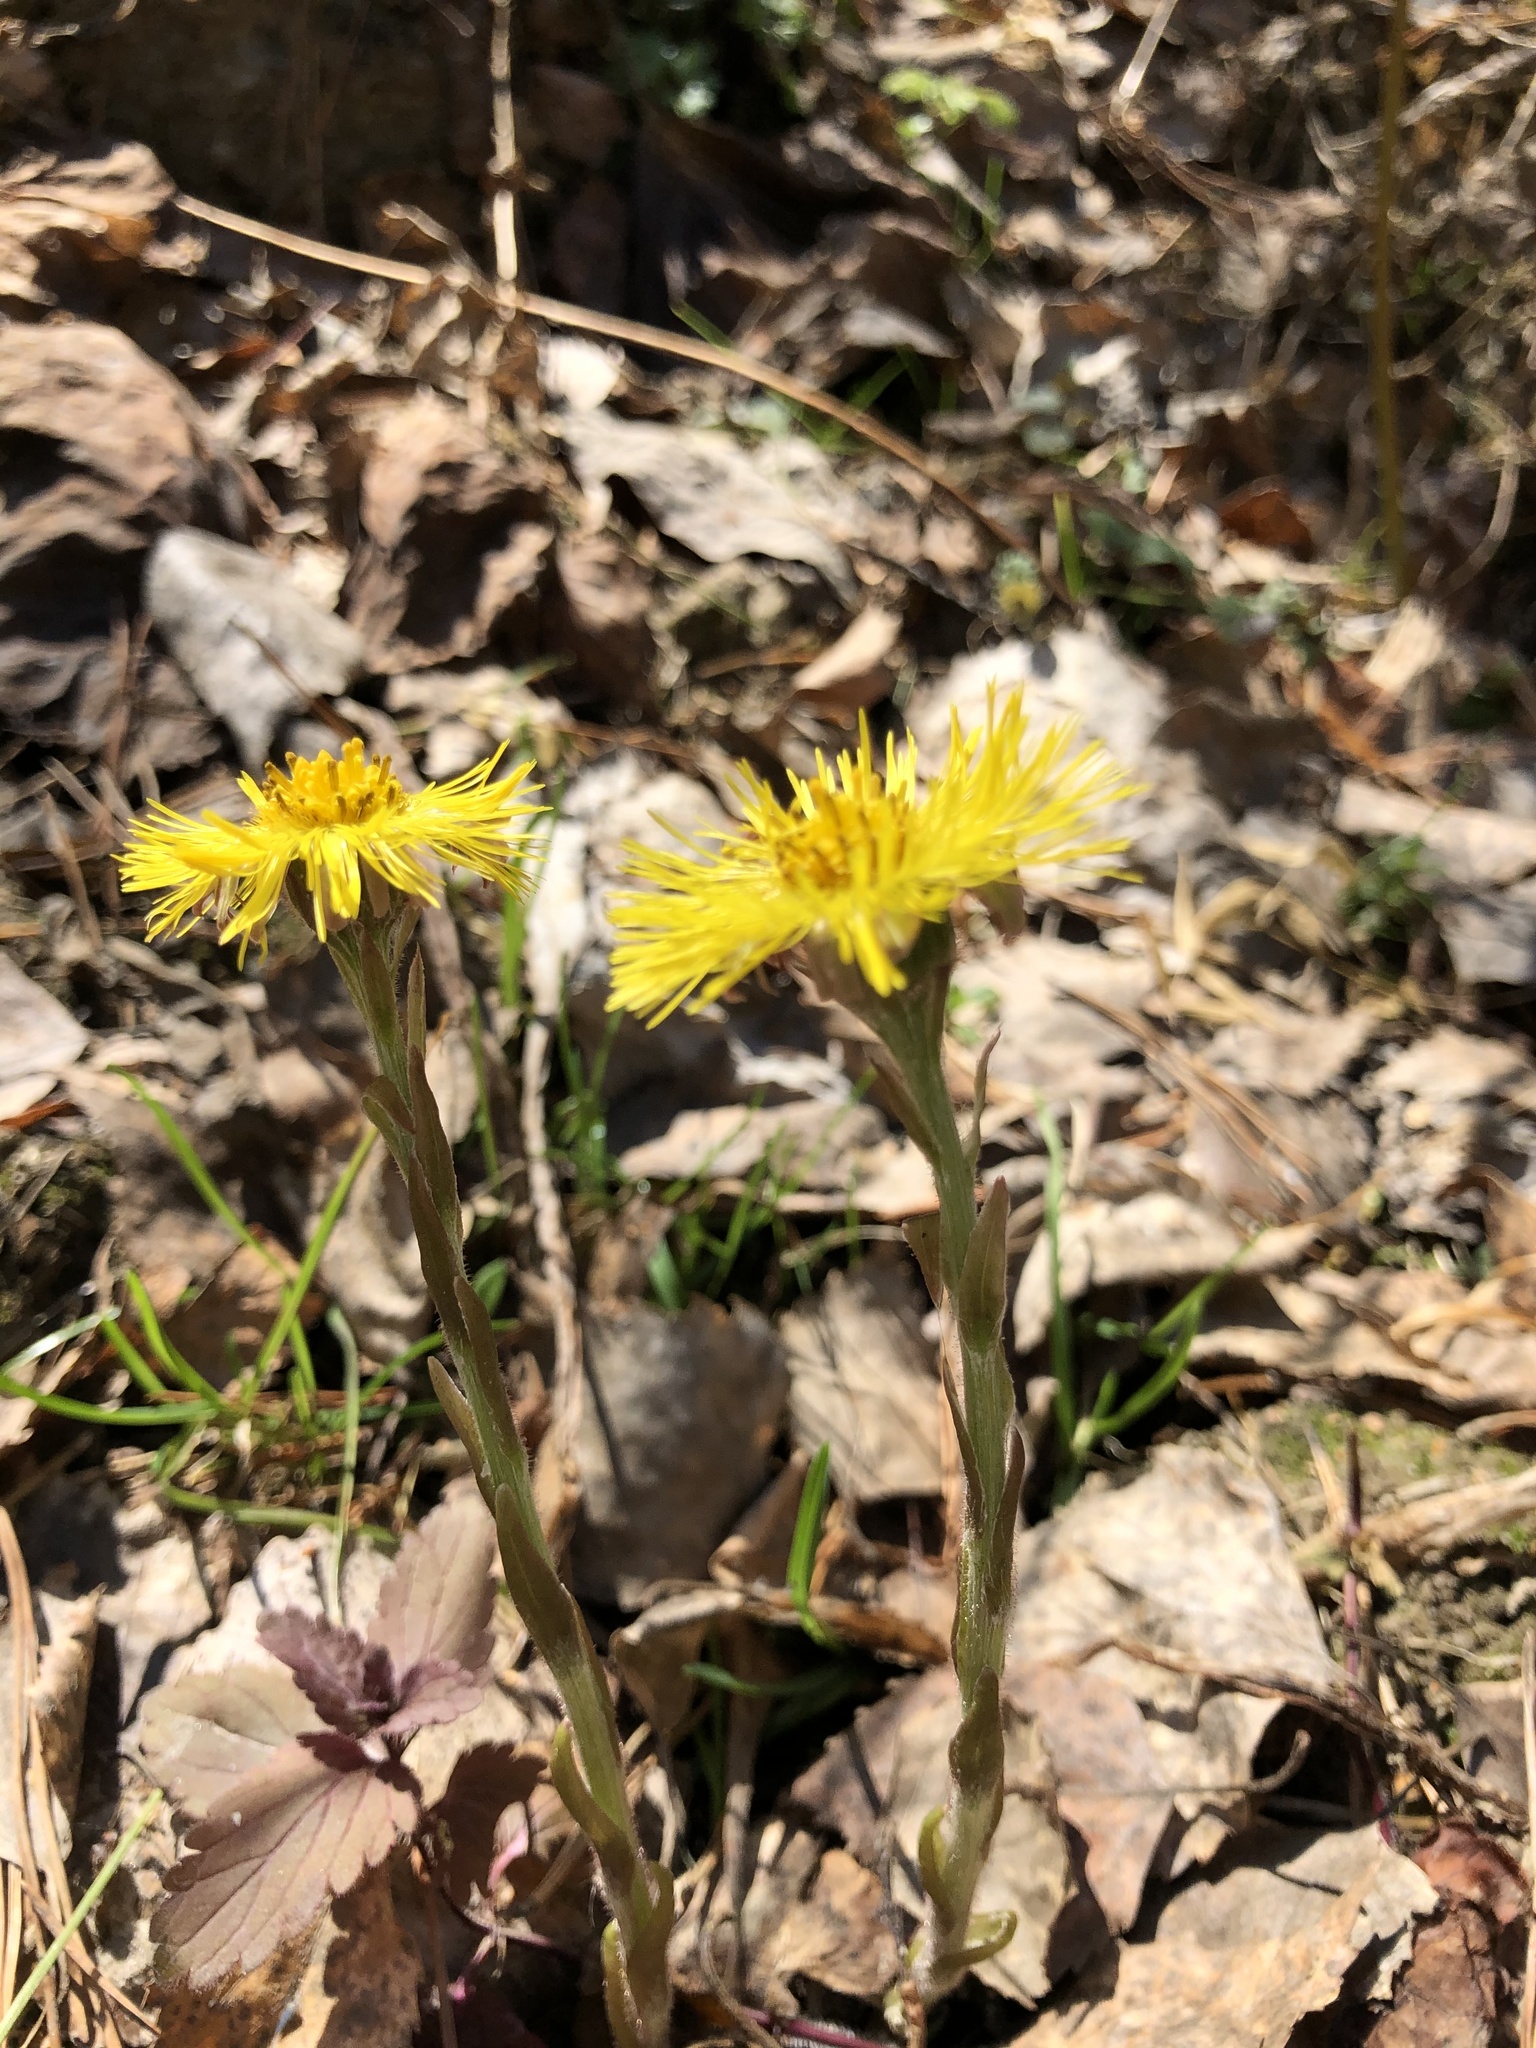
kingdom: Plantae
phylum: Tracheophyta
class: Magnoliopsida
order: Asterales
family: Asteraceae
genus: Tussilago
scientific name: Tussilago farfara
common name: Coltsfoot
